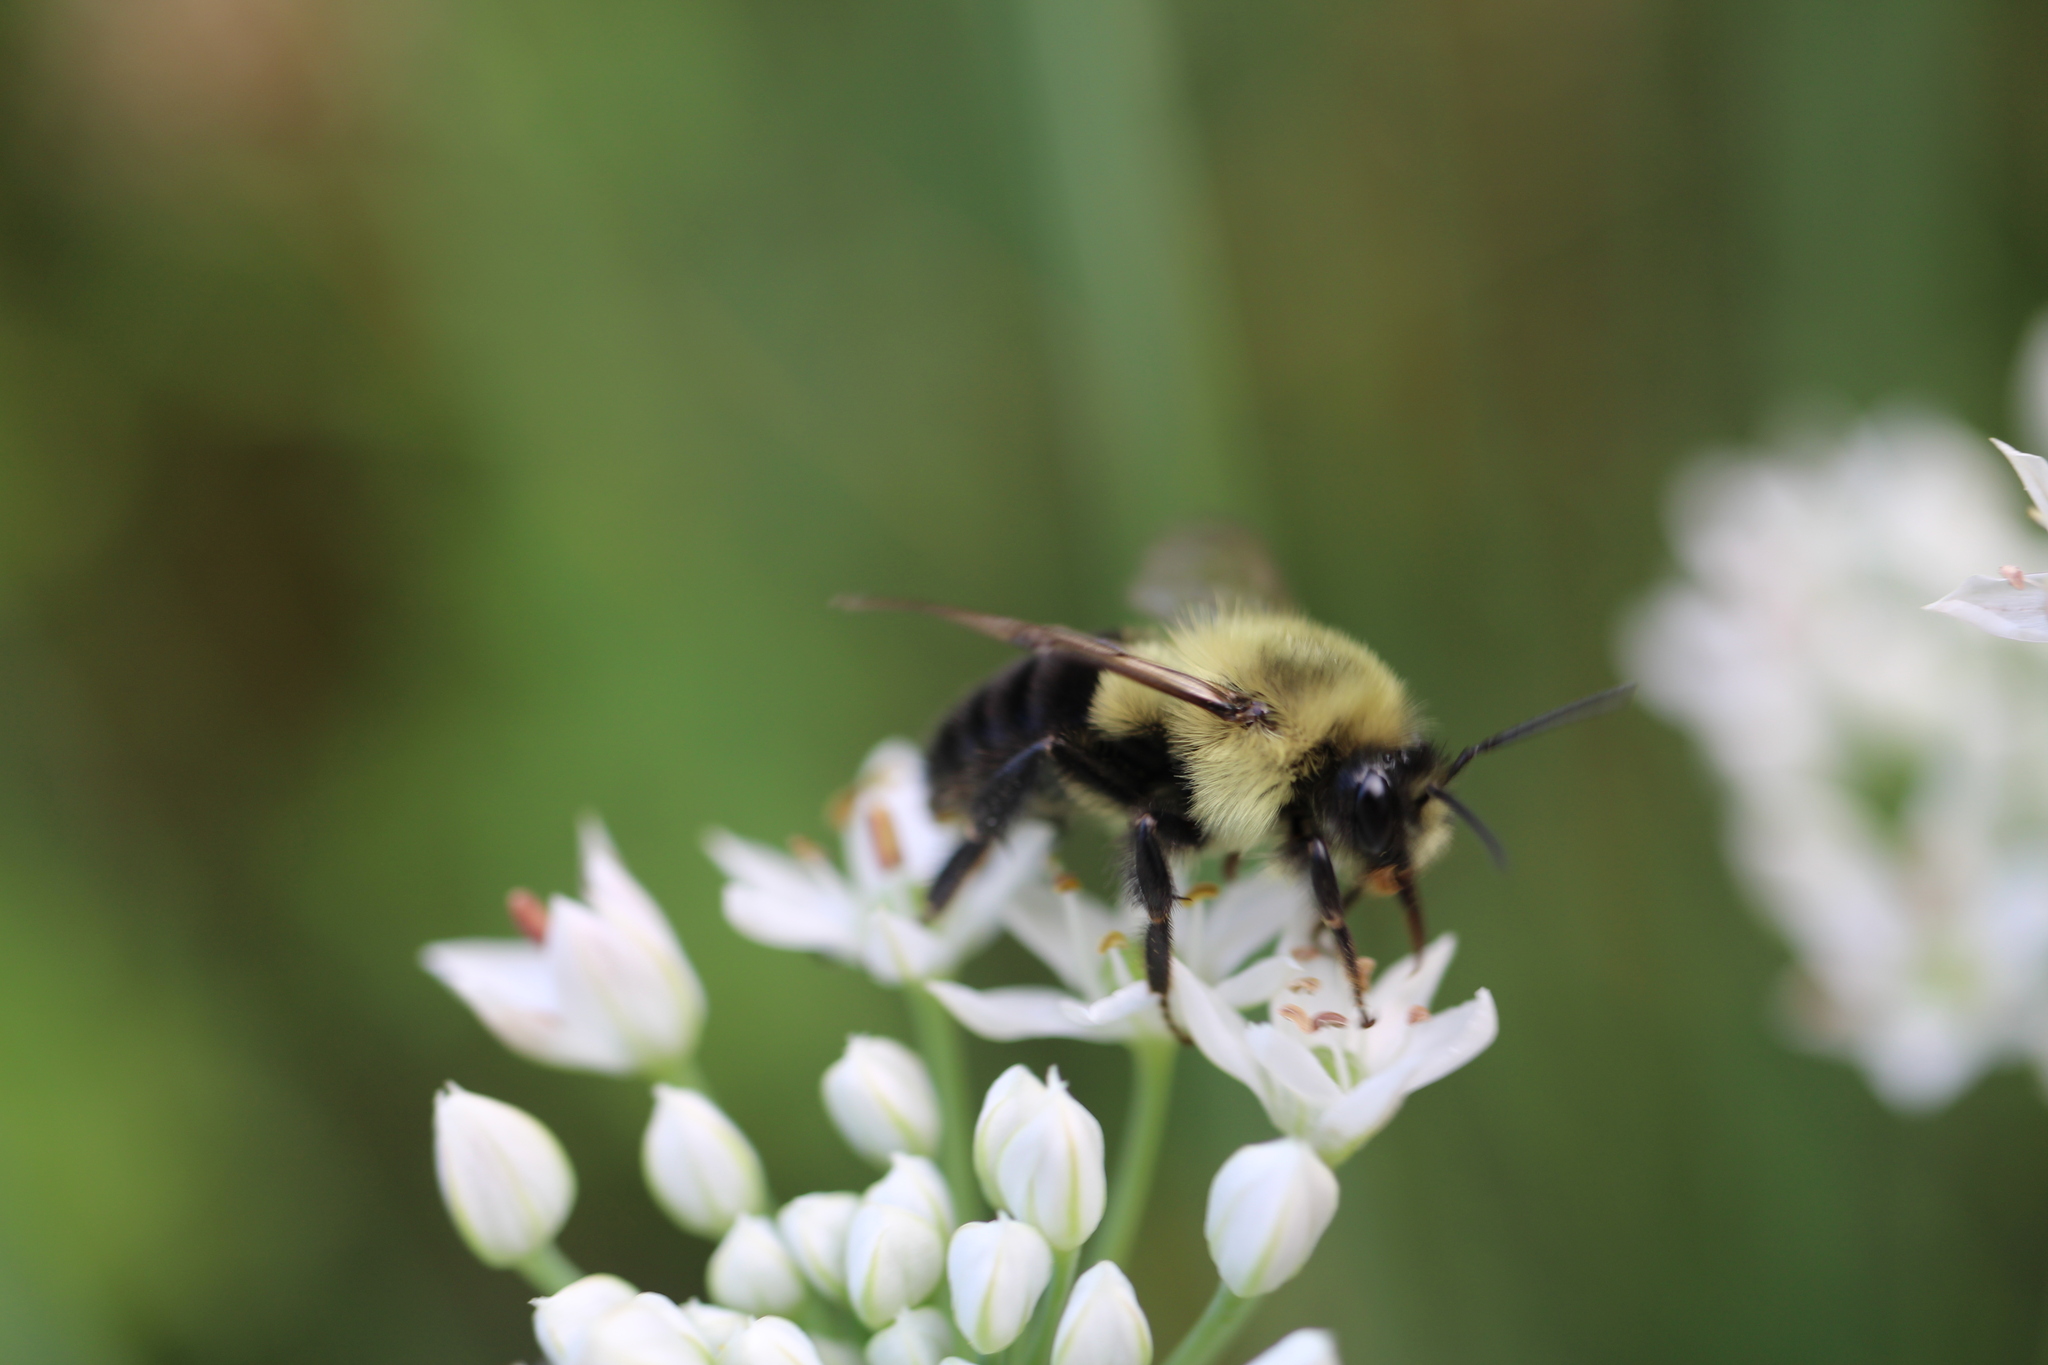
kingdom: Animalia
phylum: Arthropoda
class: Insecta
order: Hymenoptera
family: Apidae
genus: Bombus
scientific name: Bombus impatiens
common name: Common eastern bumble bee
